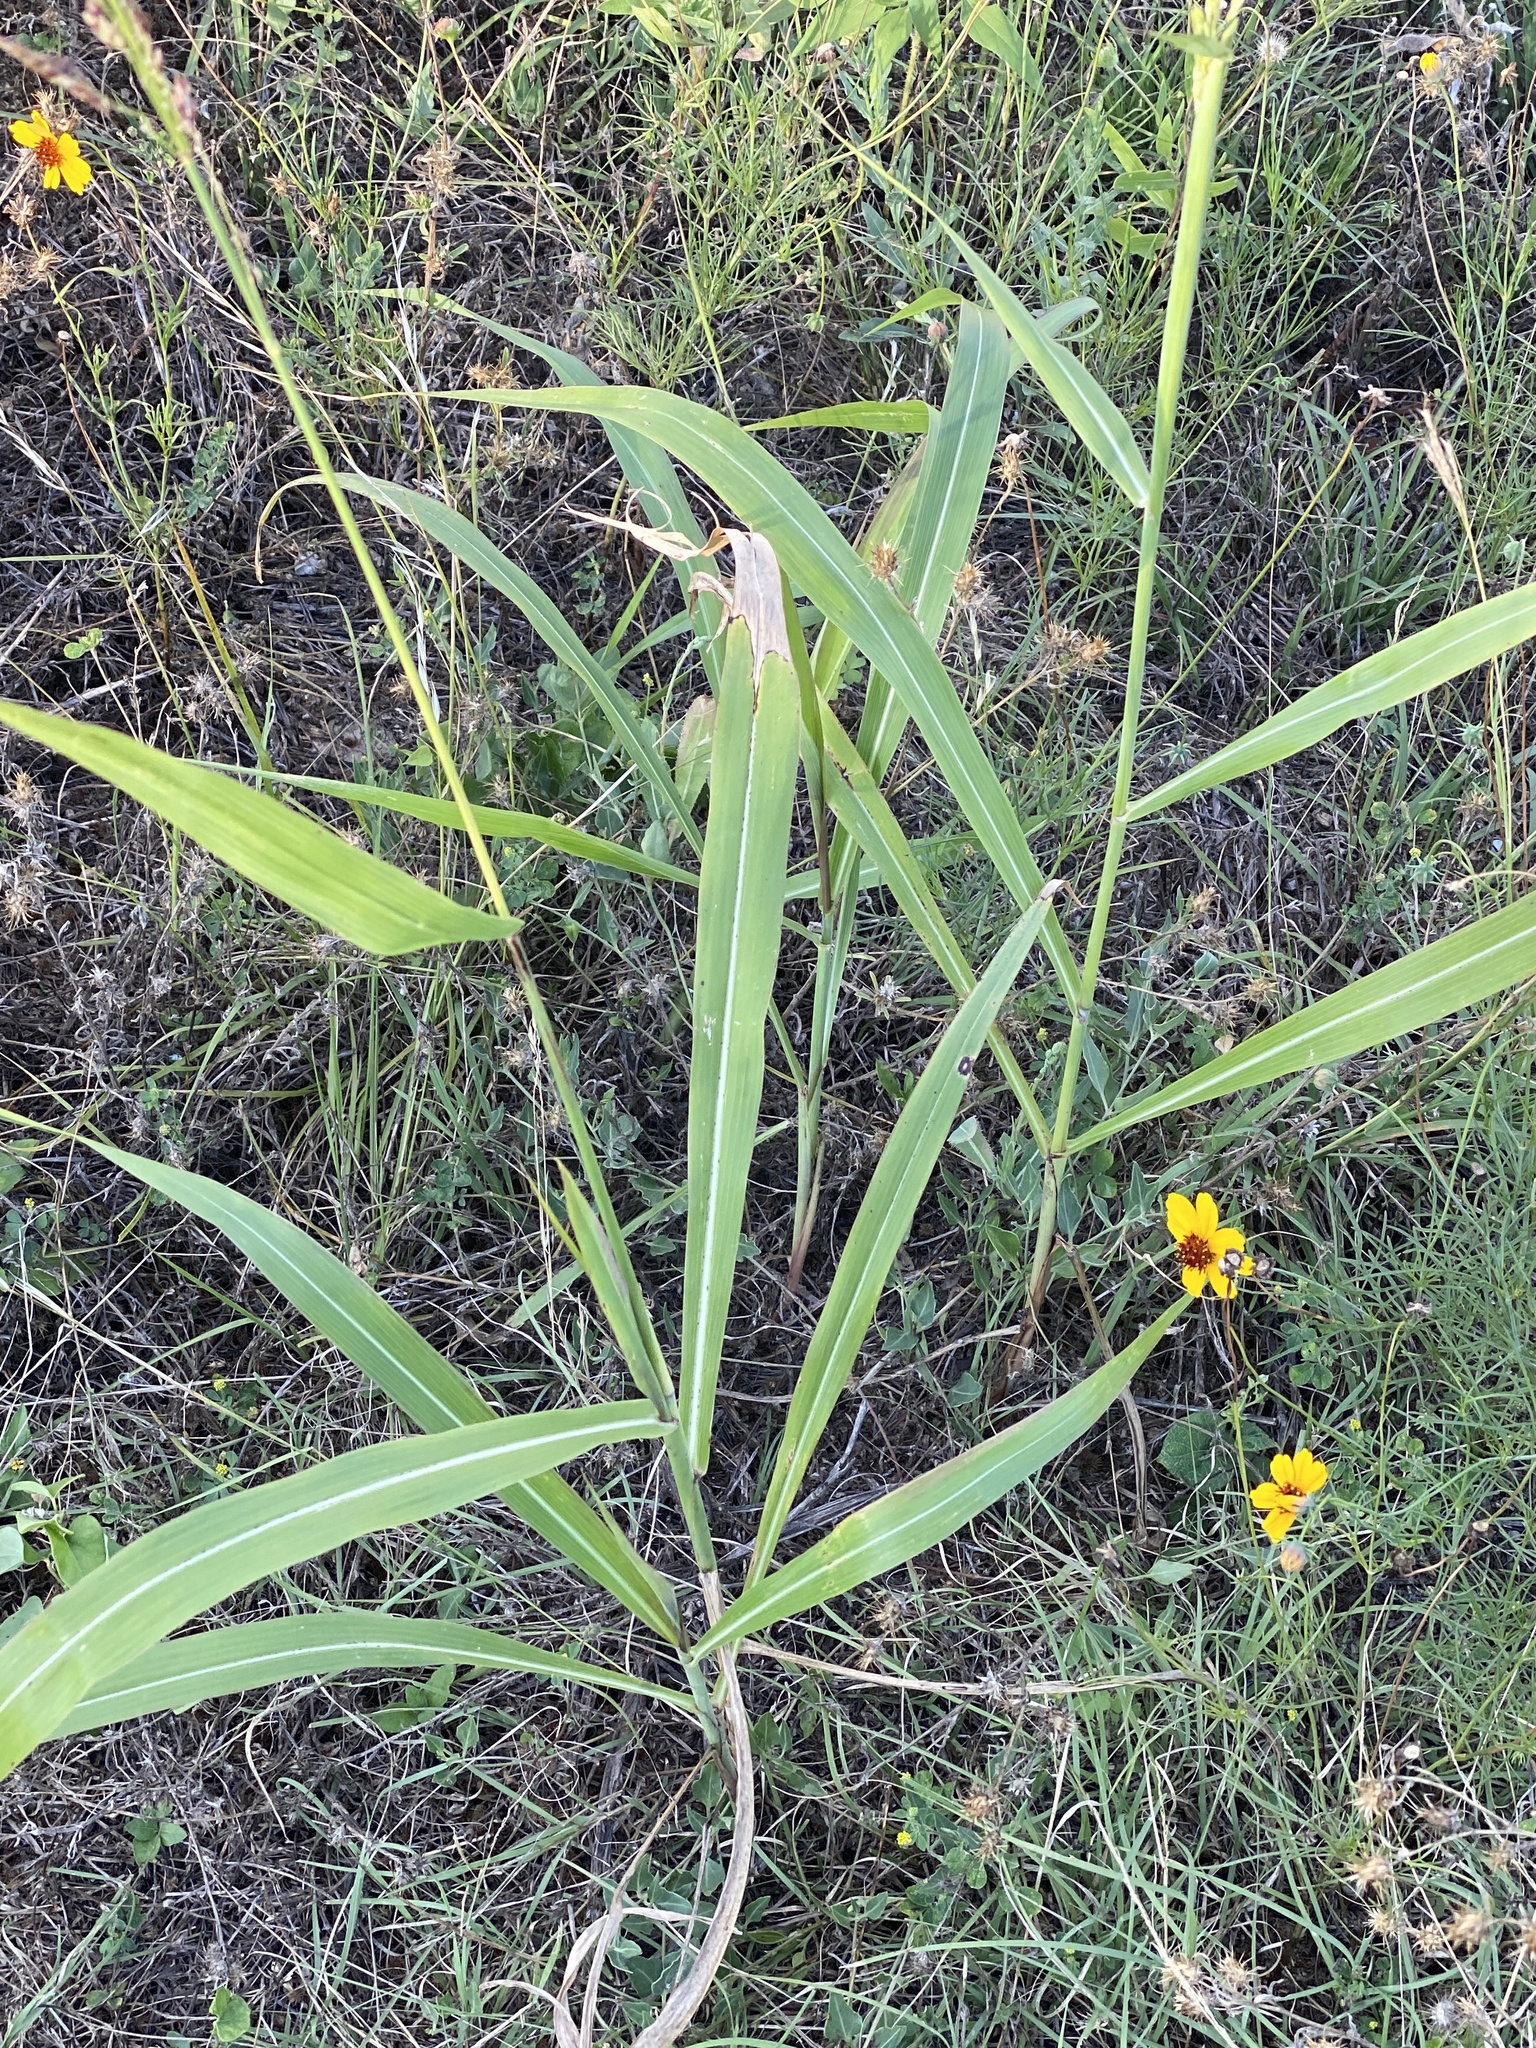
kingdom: Plantae
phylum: Tracheophyta
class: Liliopsida
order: Poales
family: Poaceae
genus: Sorghum
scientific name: Sorghum halepense
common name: Johnson-grass
